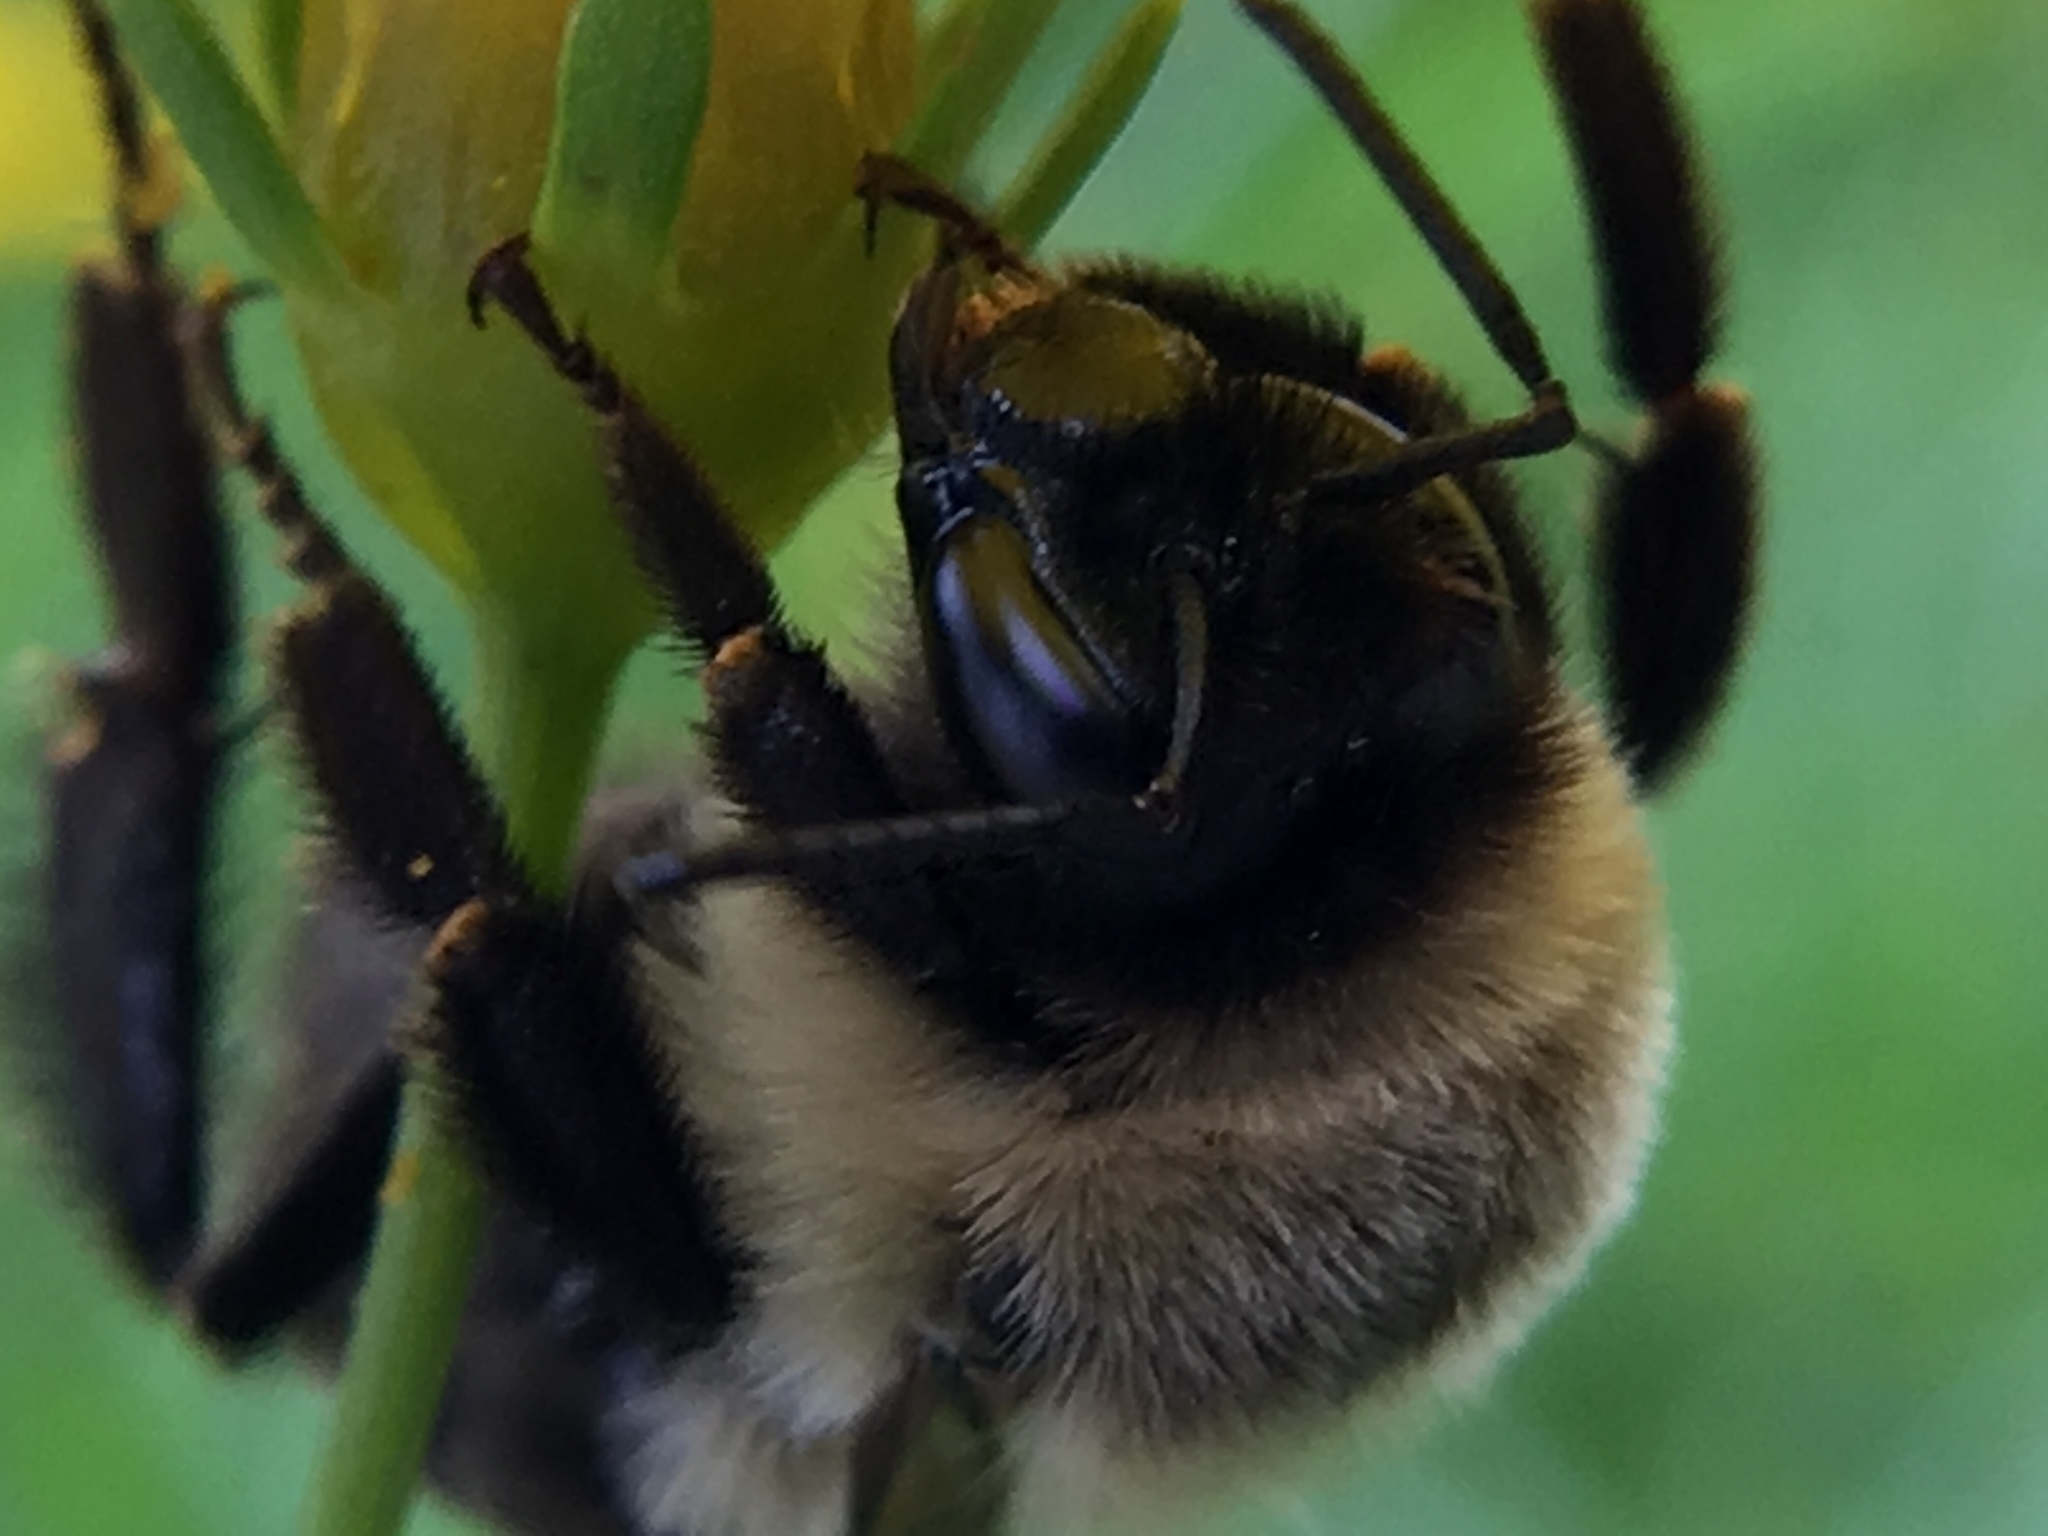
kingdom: Animalia
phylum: Arthropoda
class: Insecta
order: Hymenoptera
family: Apidae
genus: Bombus
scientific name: Bombus impatiens
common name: Common eastern bumble bee
